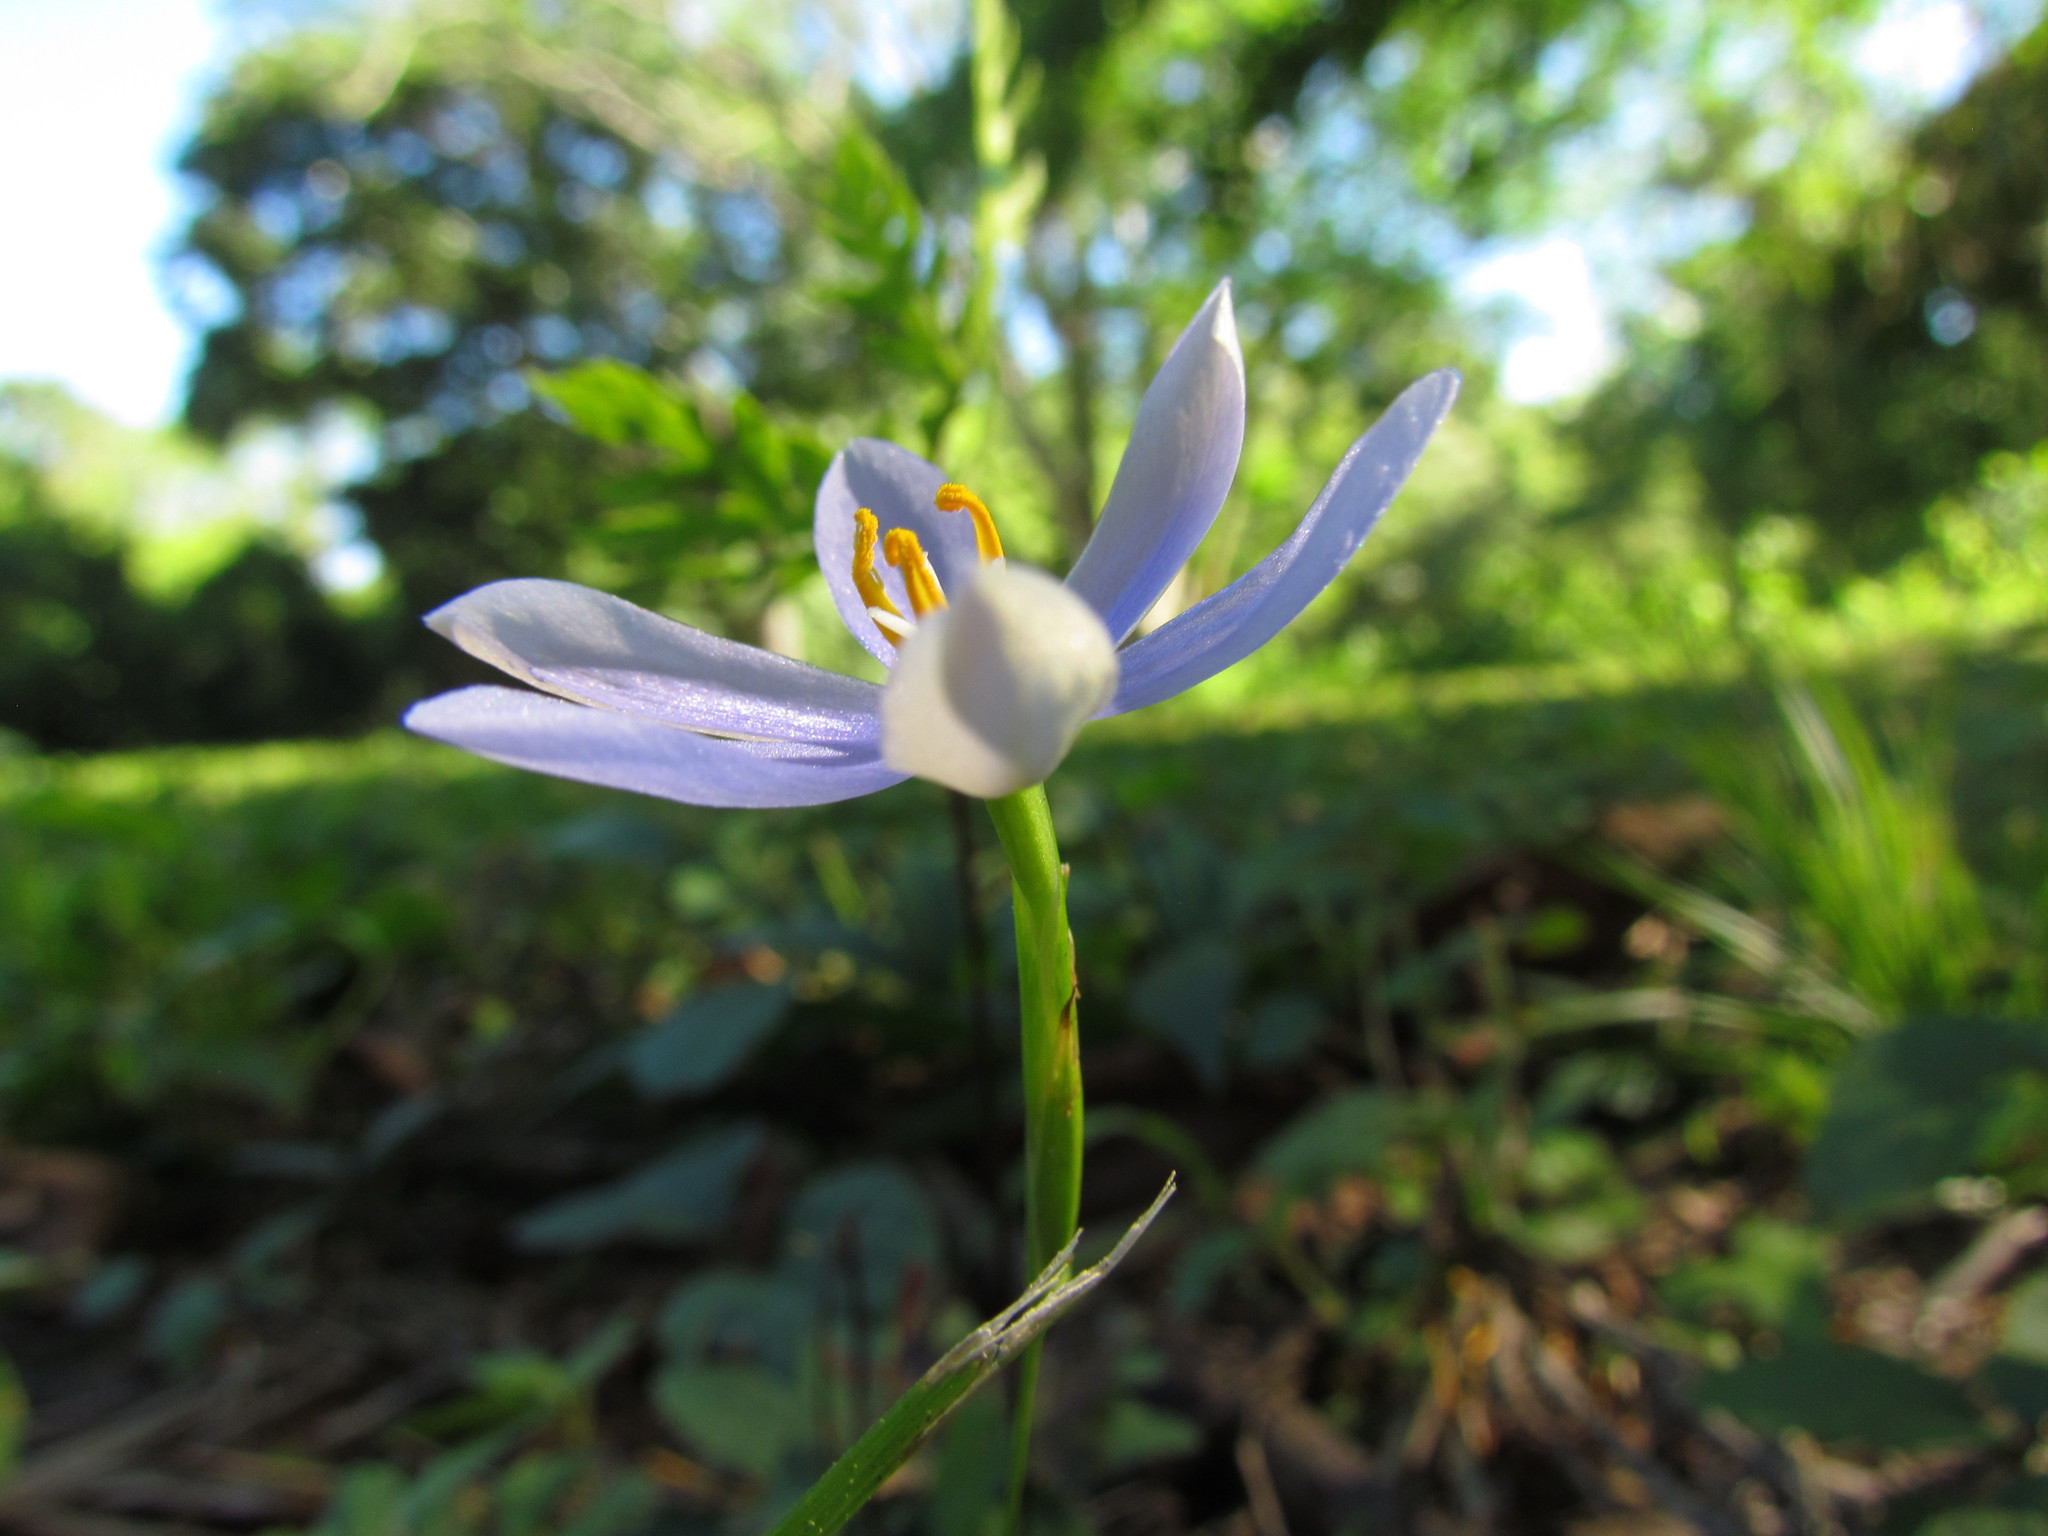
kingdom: Plantae
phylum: Tracheophyta
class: Liliopsida
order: Asparagales
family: Iridaceae
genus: Calydorea
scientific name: Calydorea approximata
